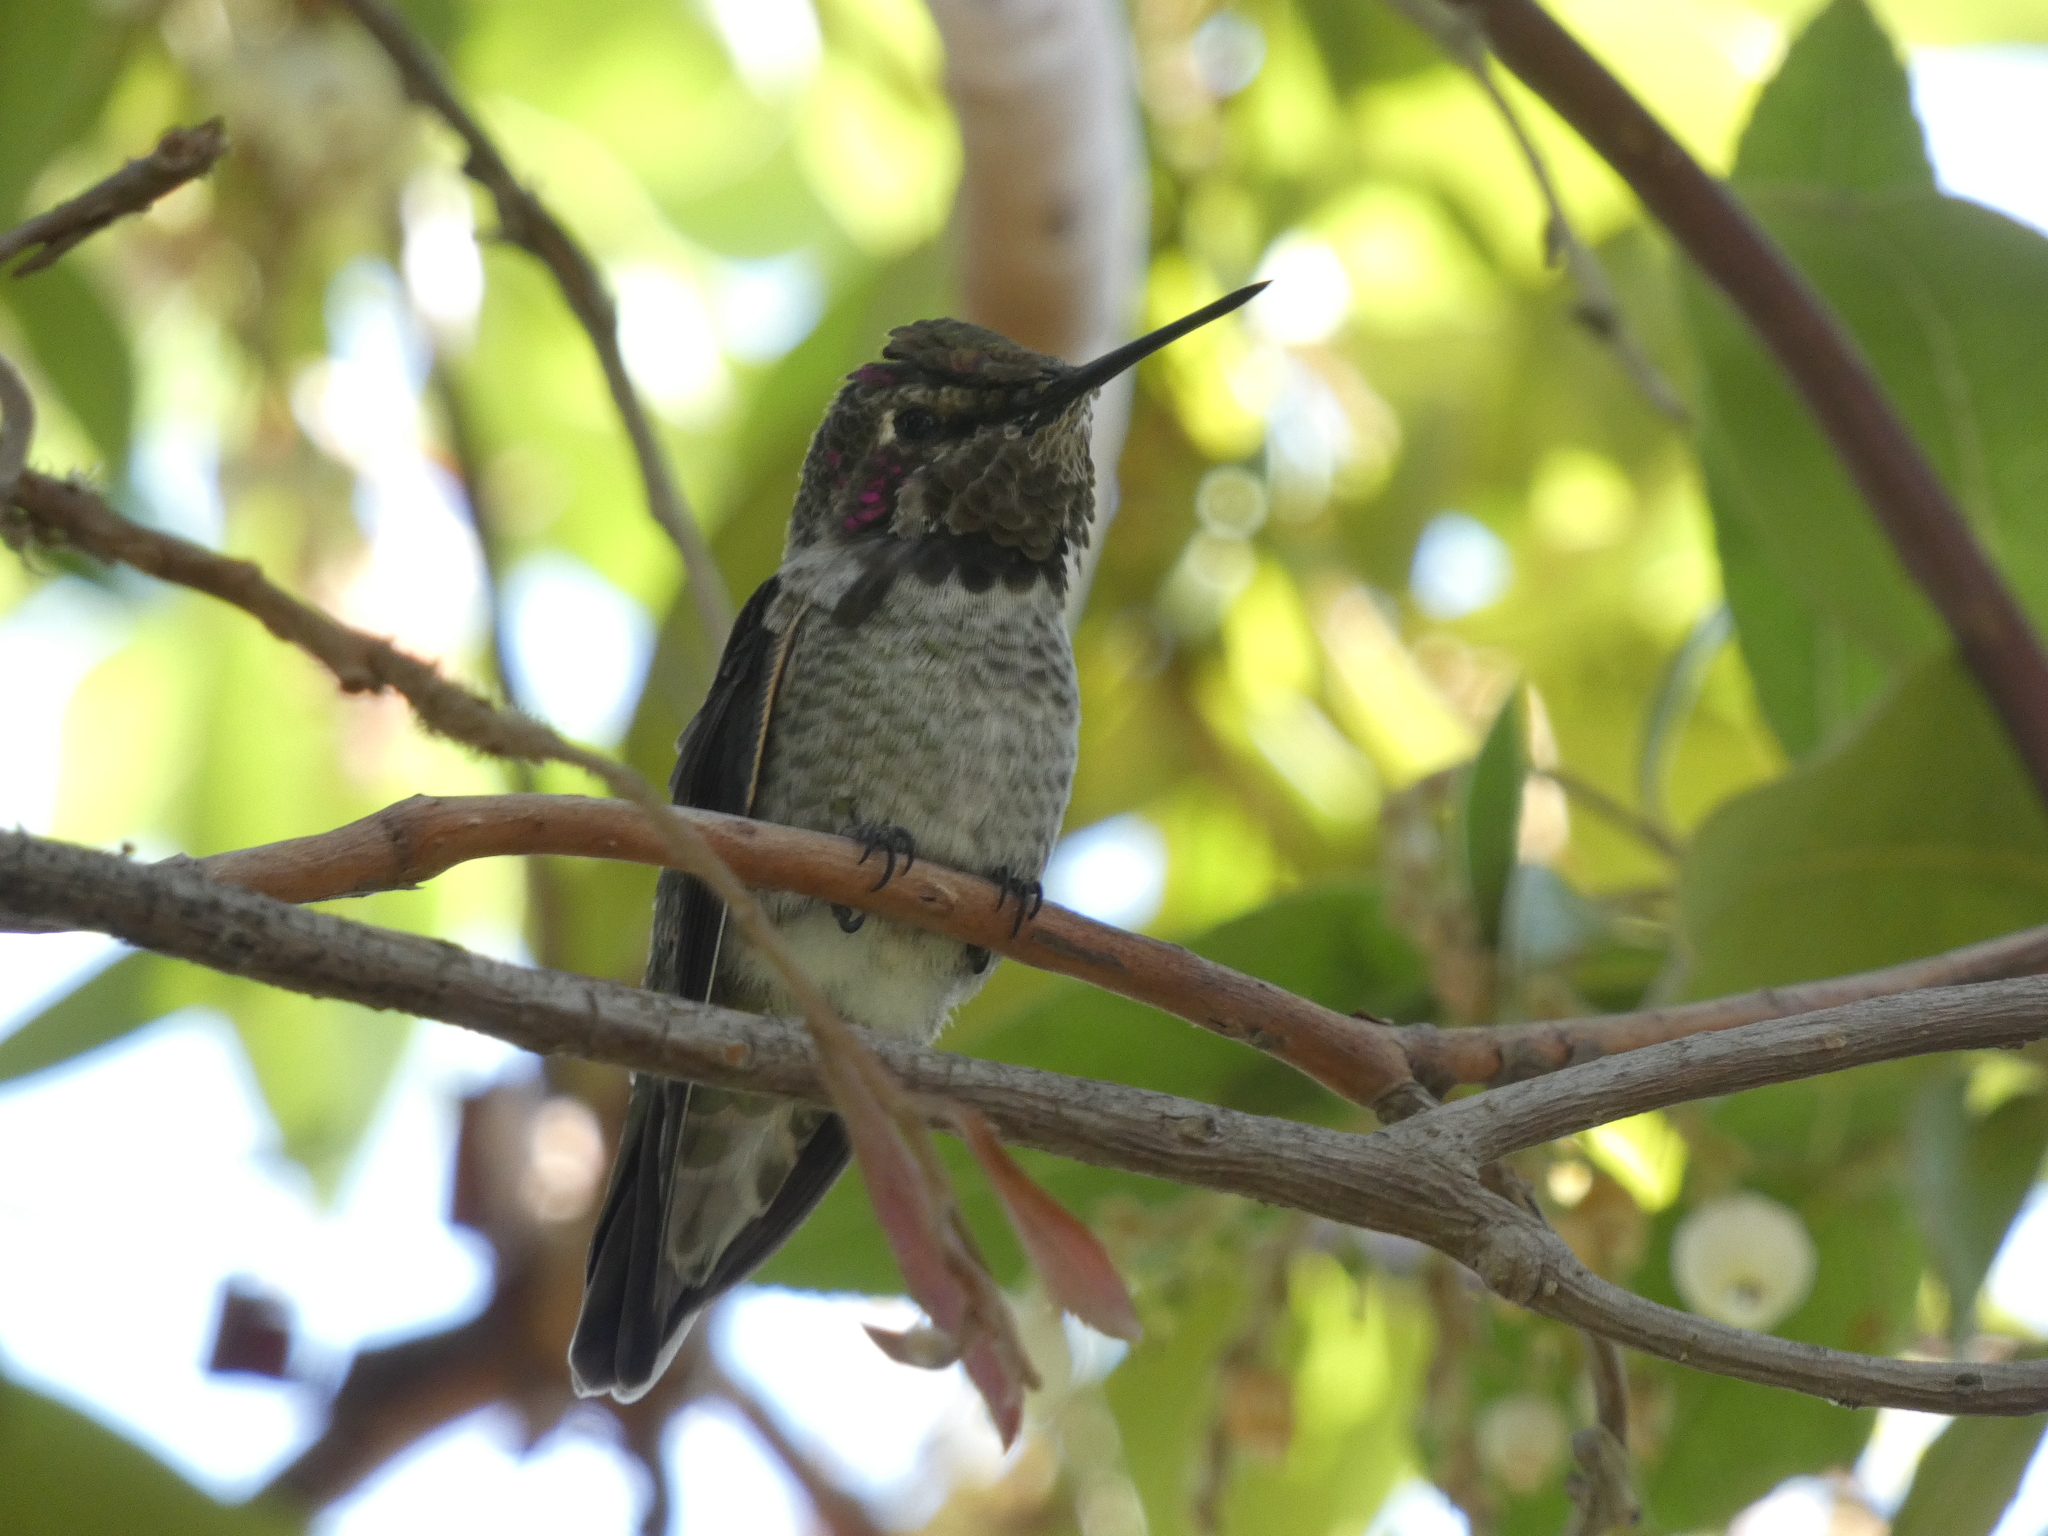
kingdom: Animalia
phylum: Chordata
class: Aves
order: Apodiformes
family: Trochilidae
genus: Calypte
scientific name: Calypte anna
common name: Anna's hummingbird
